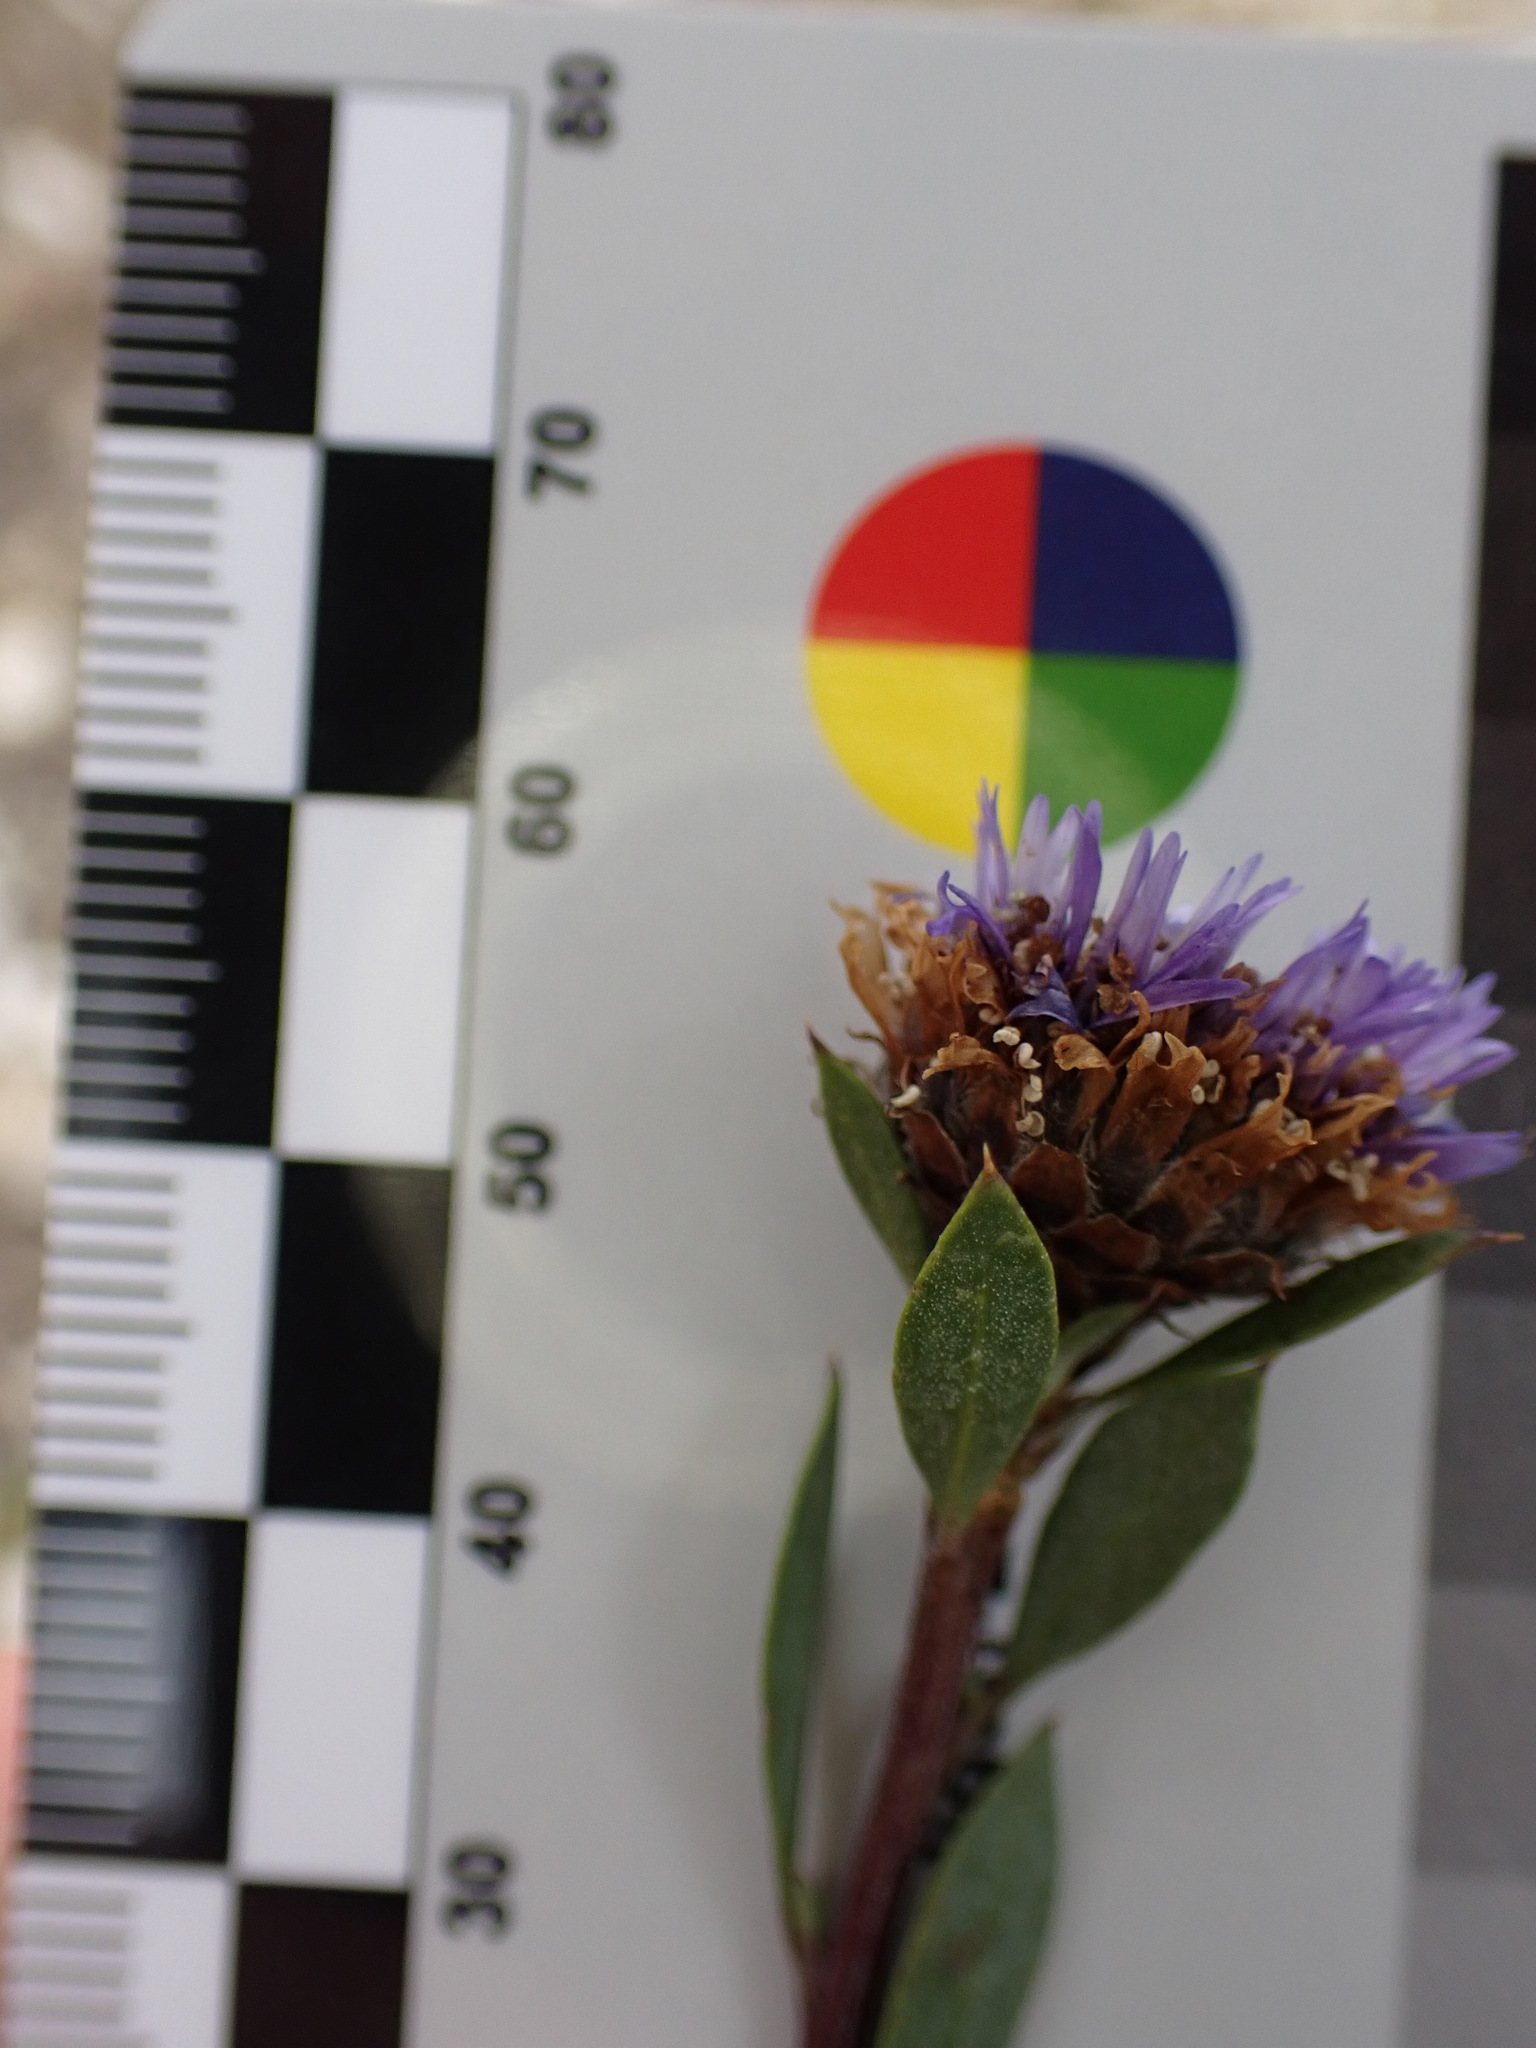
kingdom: Plantae
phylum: Tracheophyta
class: Magnoliopsida
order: Lamiales
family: Plantaginaceae
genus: Globularia
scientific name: Globularia alypum
